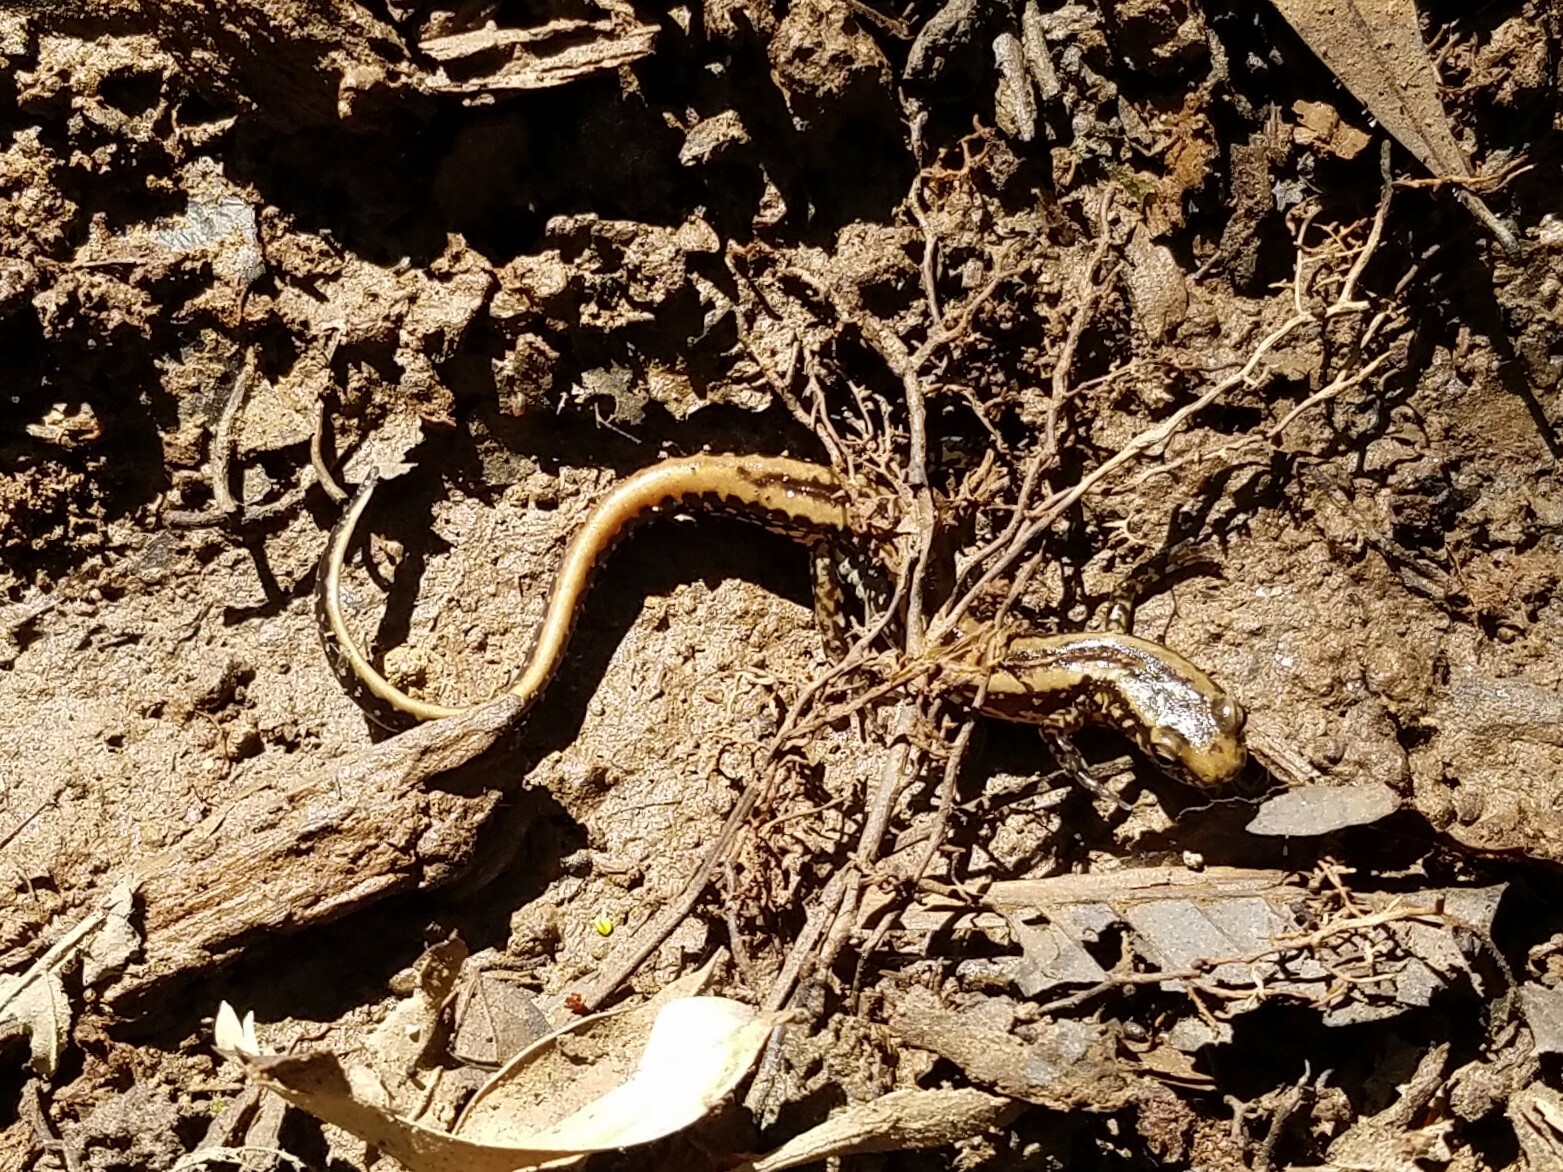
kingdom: Animalia
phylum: Chordata
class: Amphibia
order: Caudata
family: Plethodontidae
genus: Eurycea
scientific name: Eurycea guttolineata
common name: Three-lined salamander
